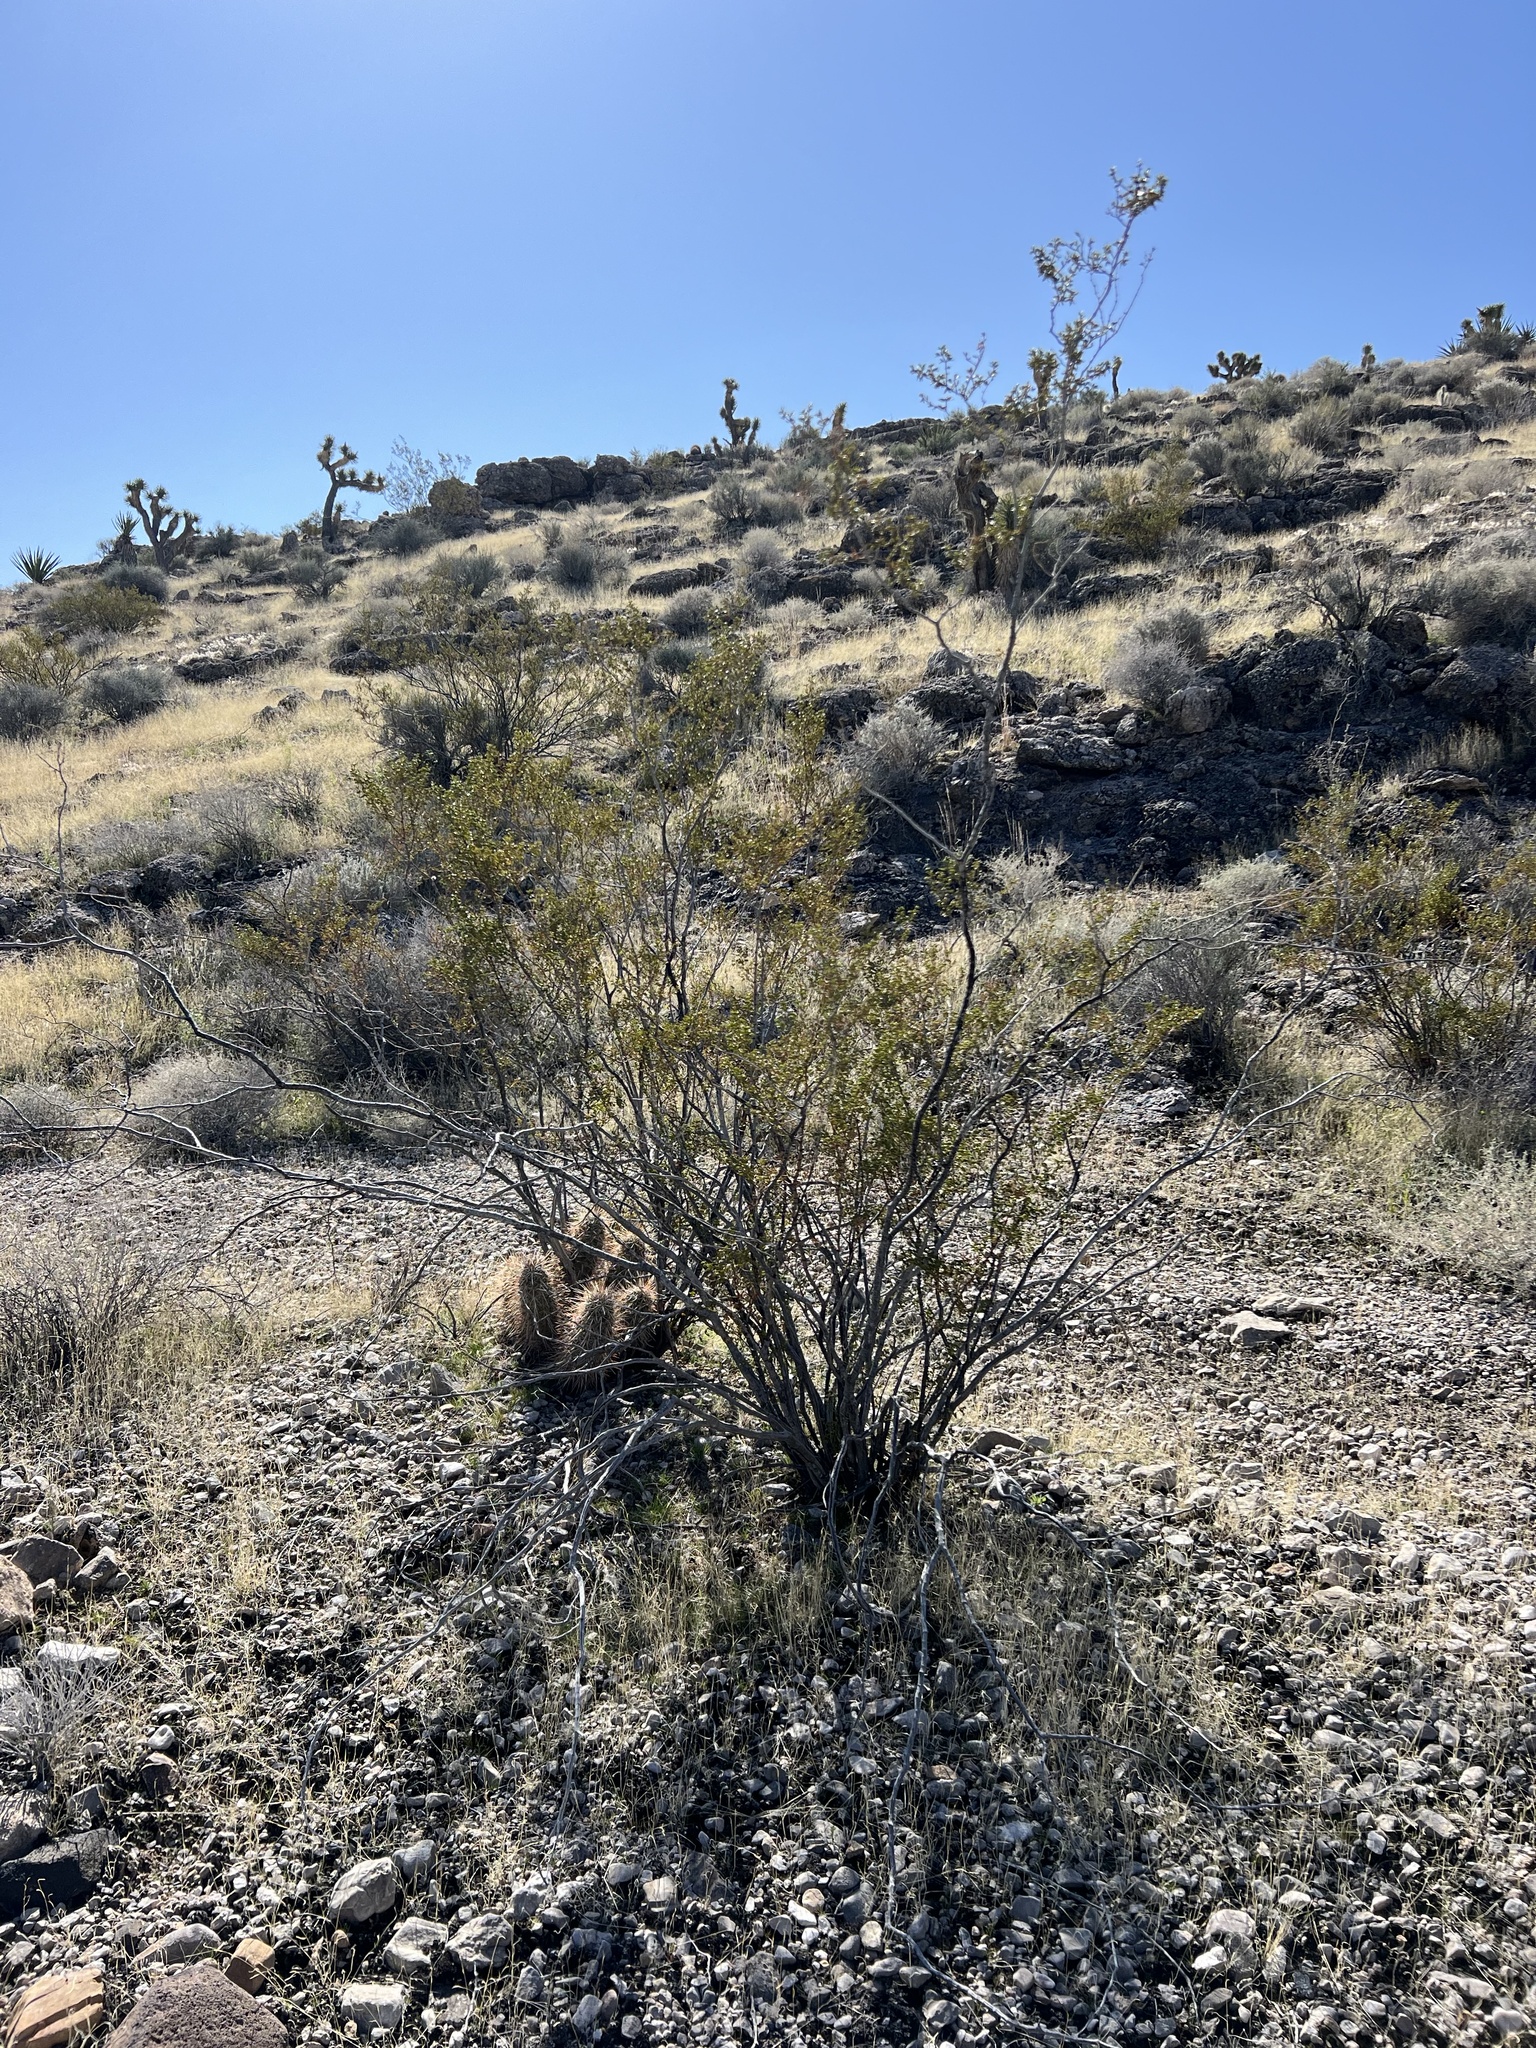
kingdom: Plantae
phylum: Tracheophyta
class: Magnoliopsida
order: Zygophyllales
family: Zygophyllaceae
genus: Larrea
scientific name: Larrea tridentata
